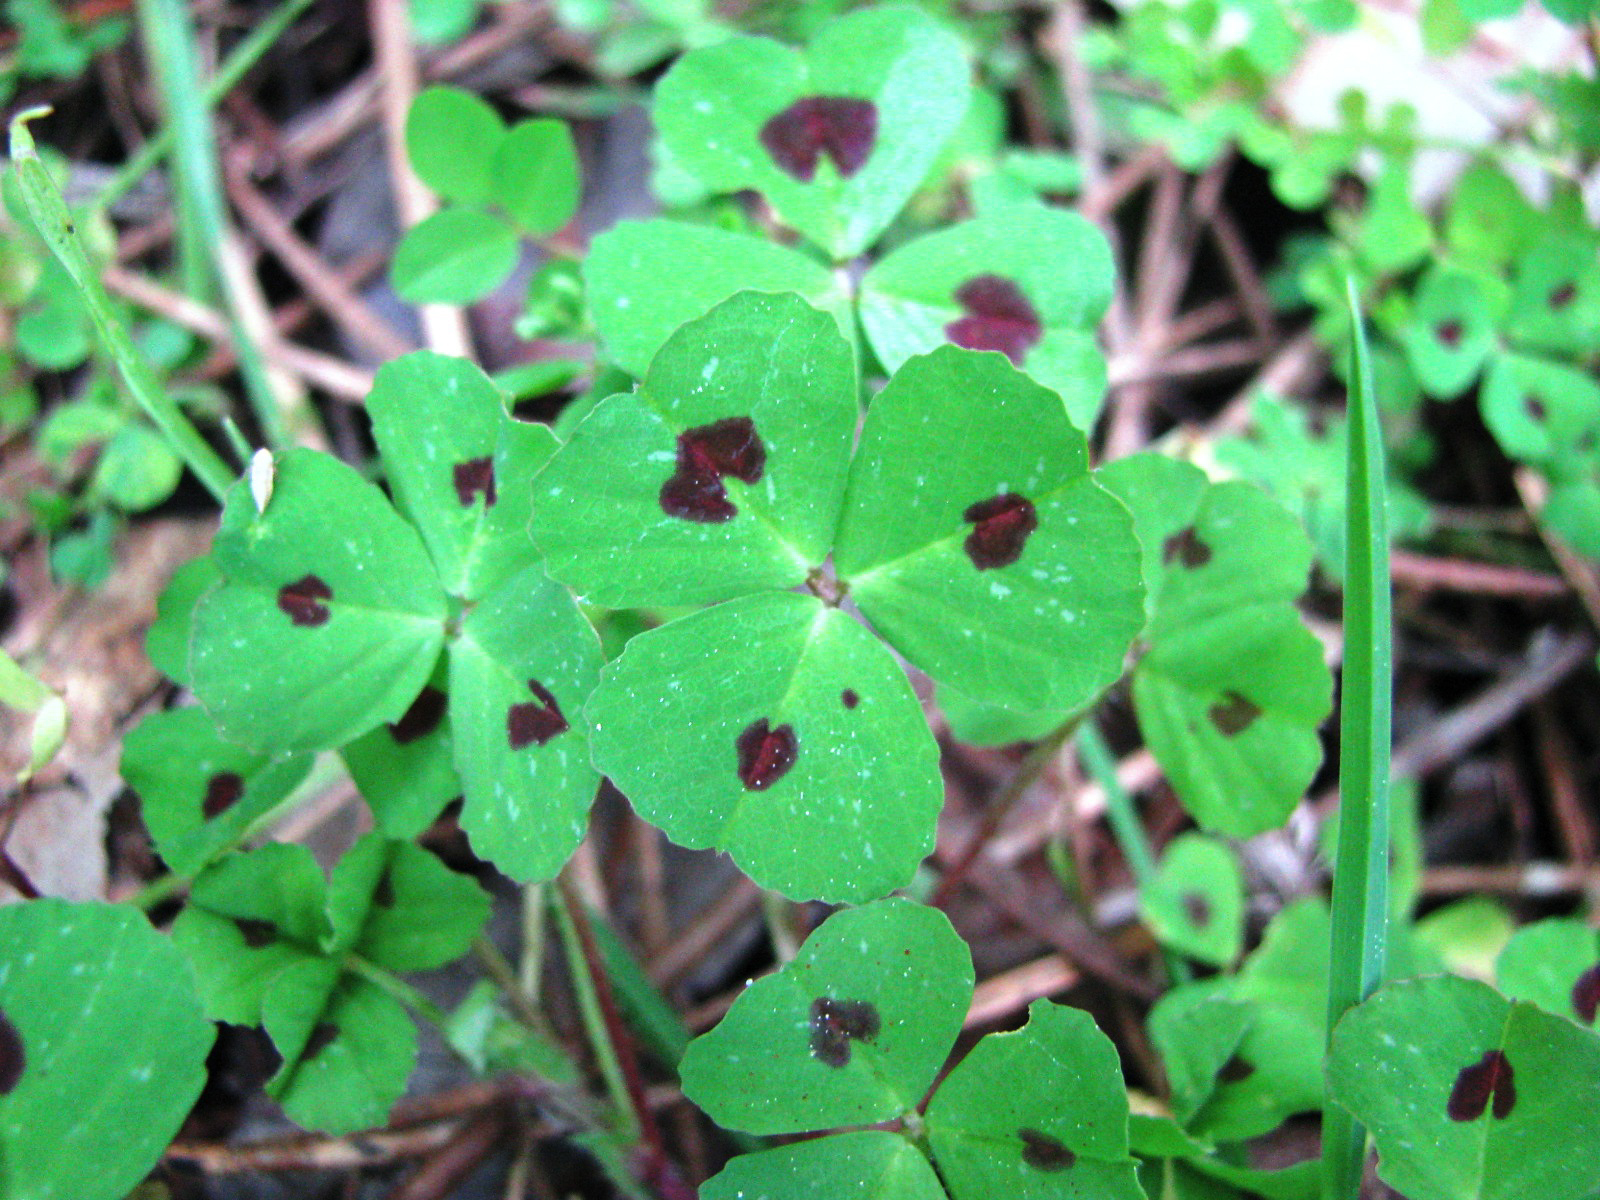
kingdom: Plantae
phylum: Tracheophyta
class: Magnoliopsida
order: Fabales
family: Fabaceae
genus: Medicago
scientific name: Medicago arabica
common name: Spotted medick
